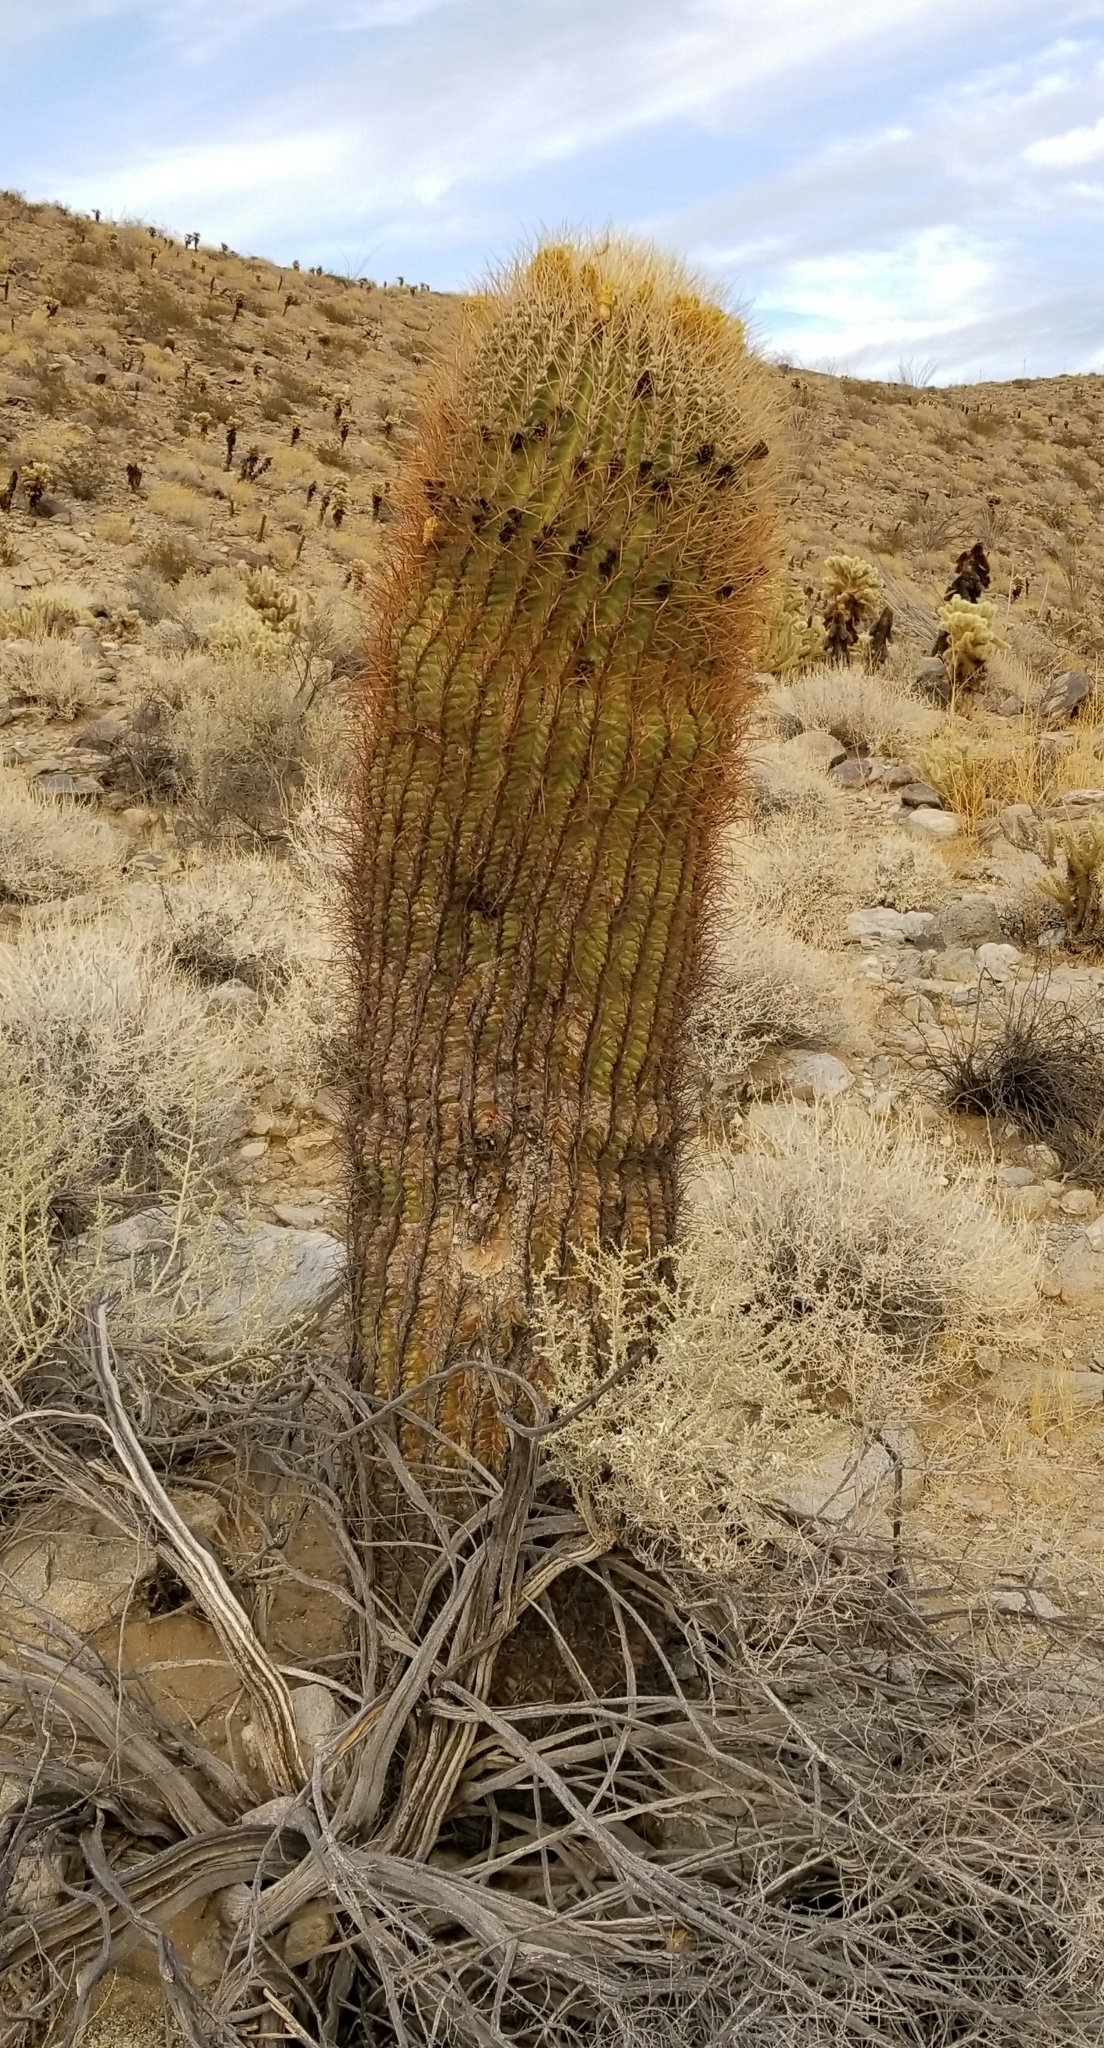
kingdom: Plantae
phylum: Tracheophyta
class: Magnoliopsida
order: Caryophyllales
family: Cactaceae
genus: Ferocactus
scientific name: Ferocactus cylindraceus
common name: California barrel cactus
